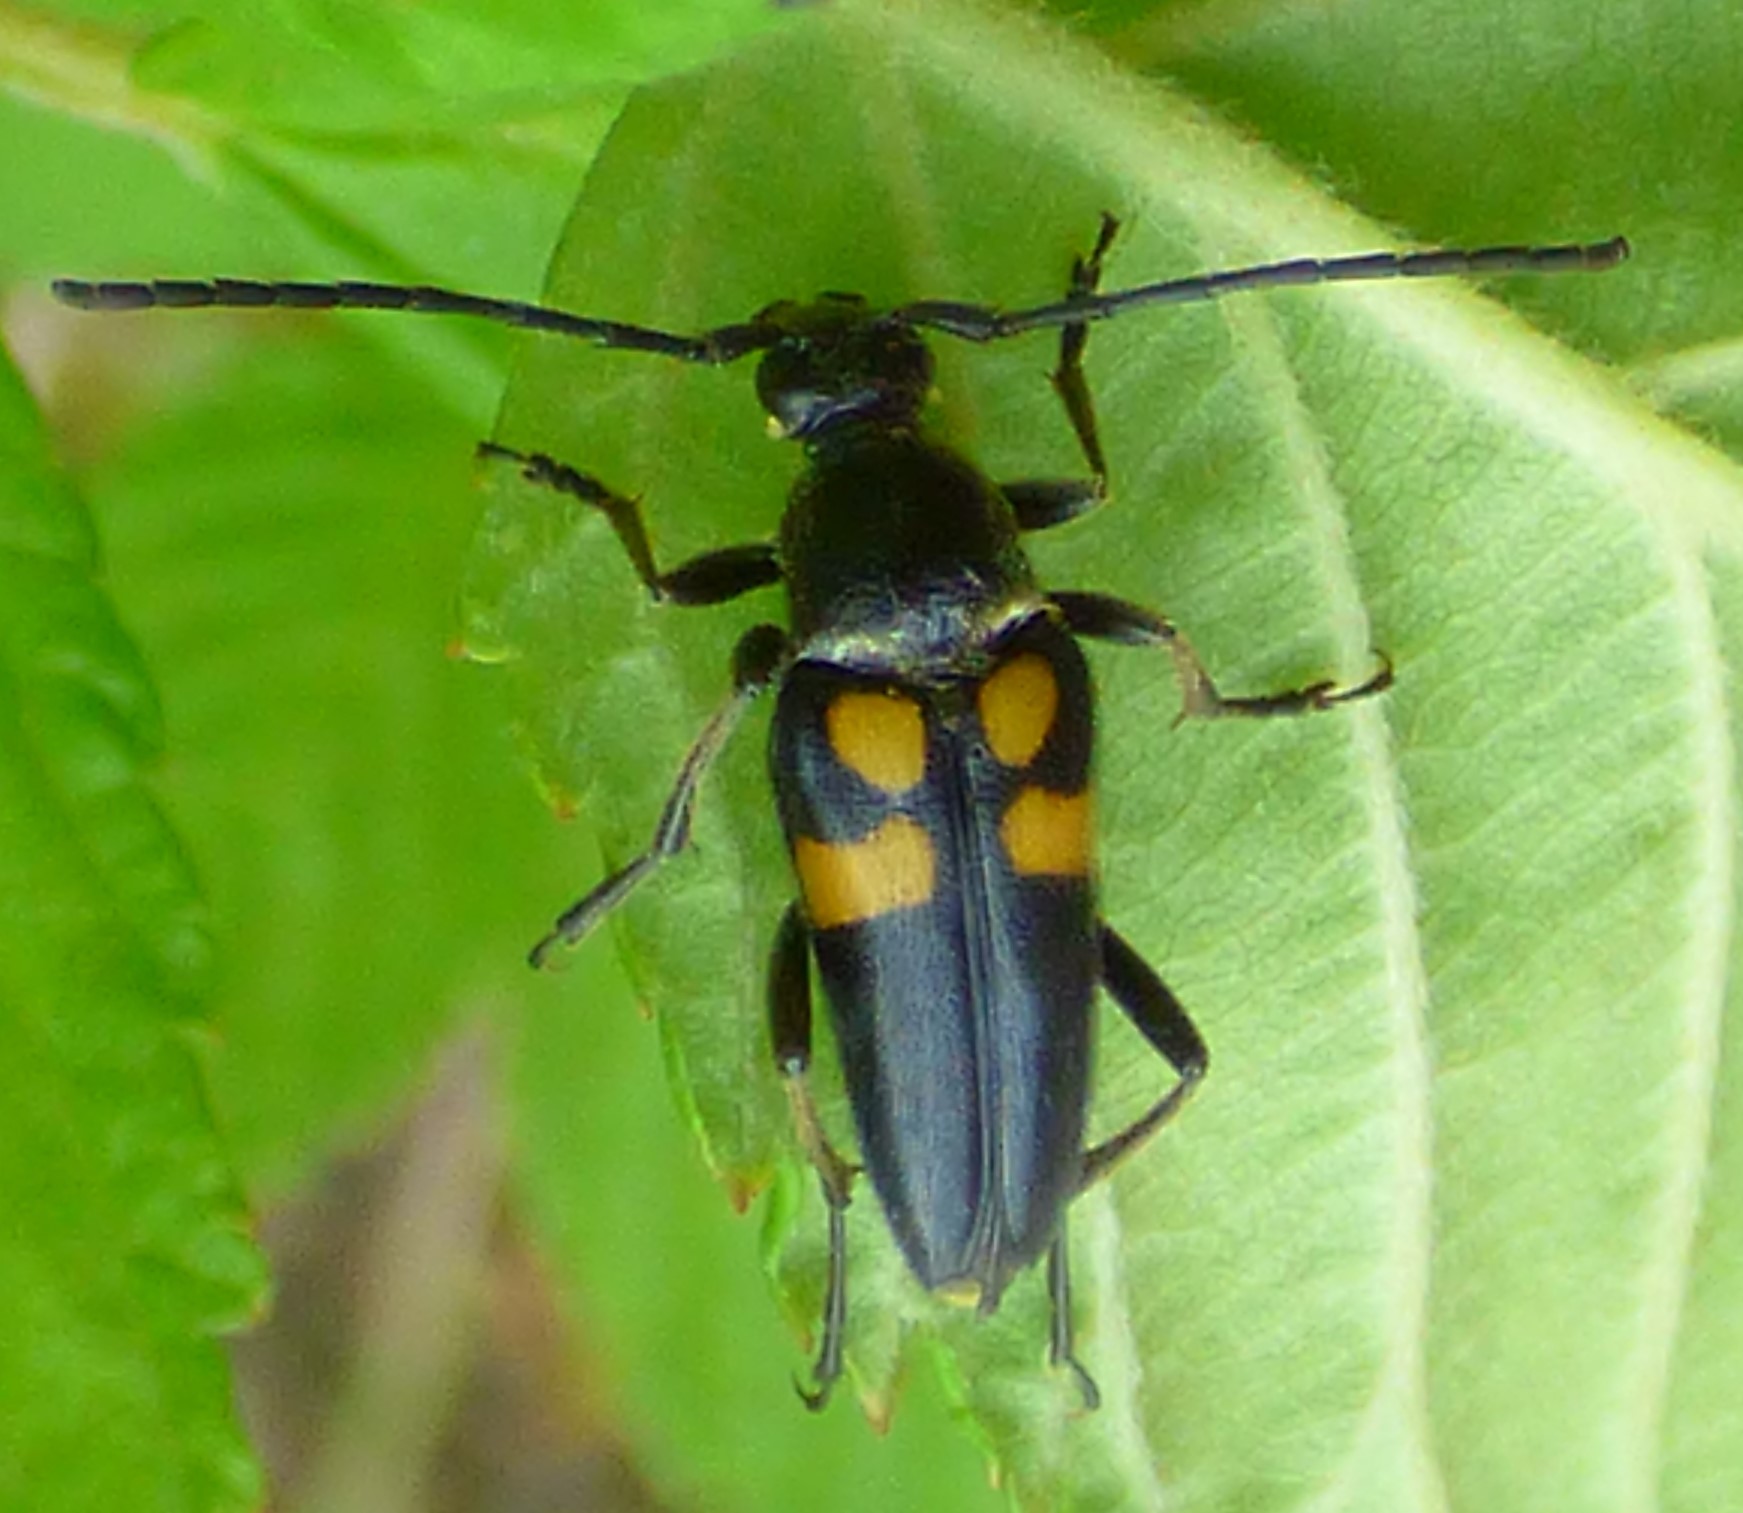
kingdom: Animalia
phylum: Arthropoda
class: Insecta
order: Coleoptera
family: Cerambycidae
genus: Typocerus
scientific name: Typocerus lunulatus
